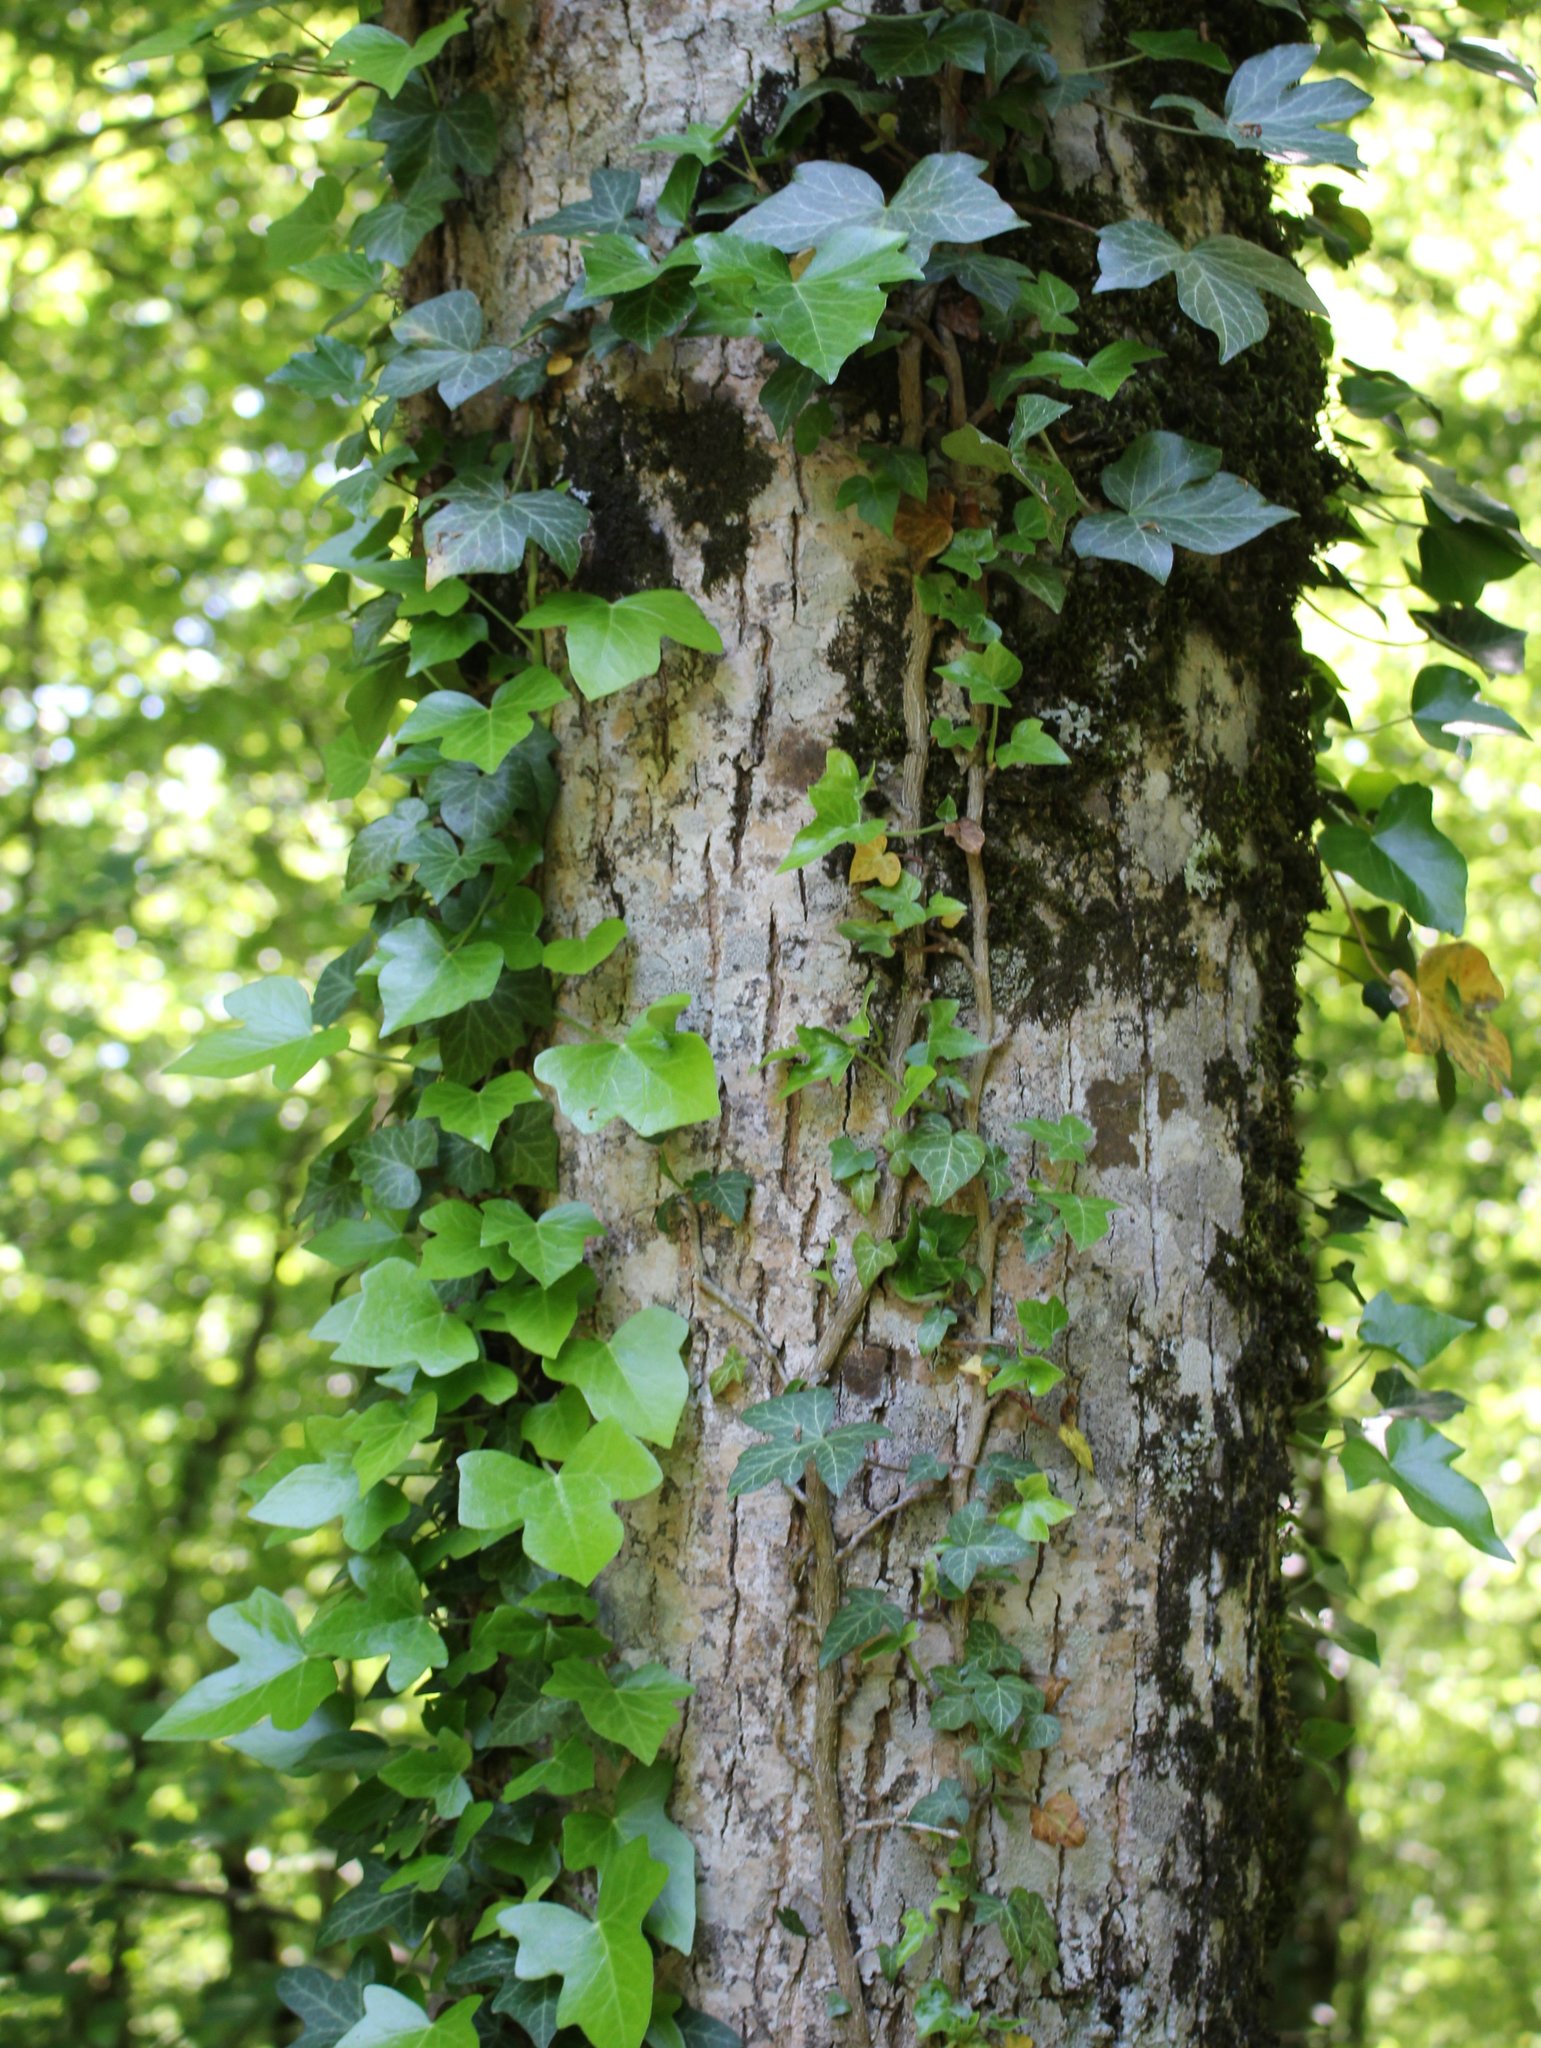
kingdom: Plantae
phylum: Tracheophyta
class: Magnoliopsida
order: Apiales
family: Araliaceae
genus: Hedera
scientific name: Hedera helix
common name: Ivy
